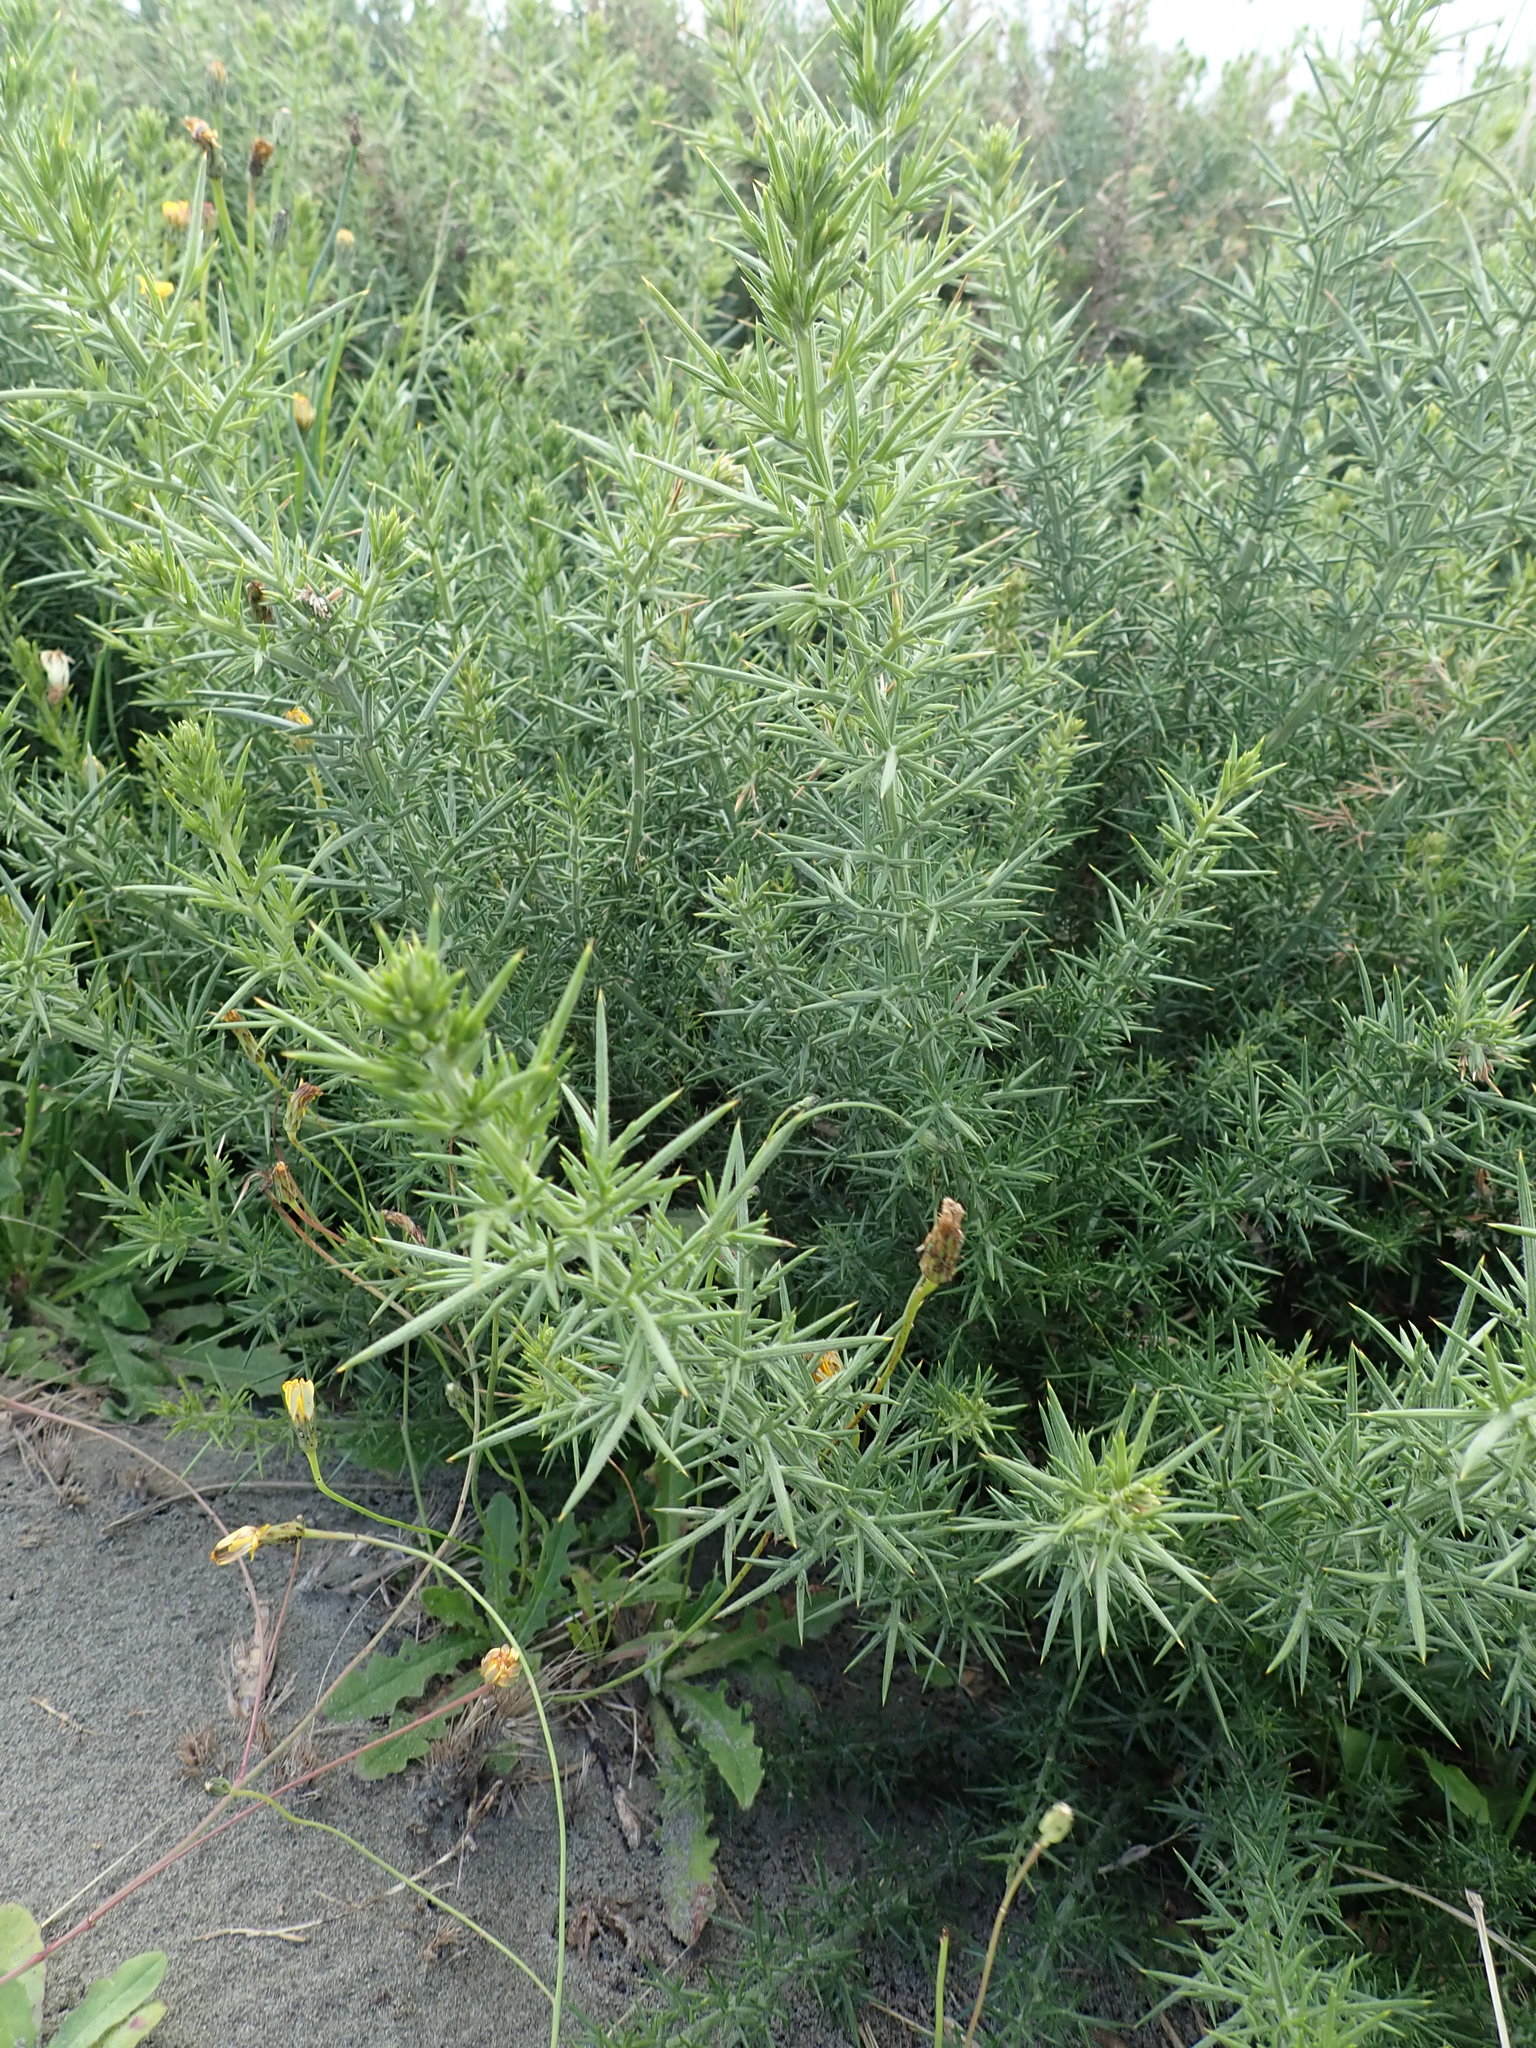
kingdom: Plantae
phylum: Tracheophyta
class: Magnoliopsida
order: Fabales
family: Fabaceae
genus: Ulex
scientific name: Ulex europaeus
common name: Common gorse
